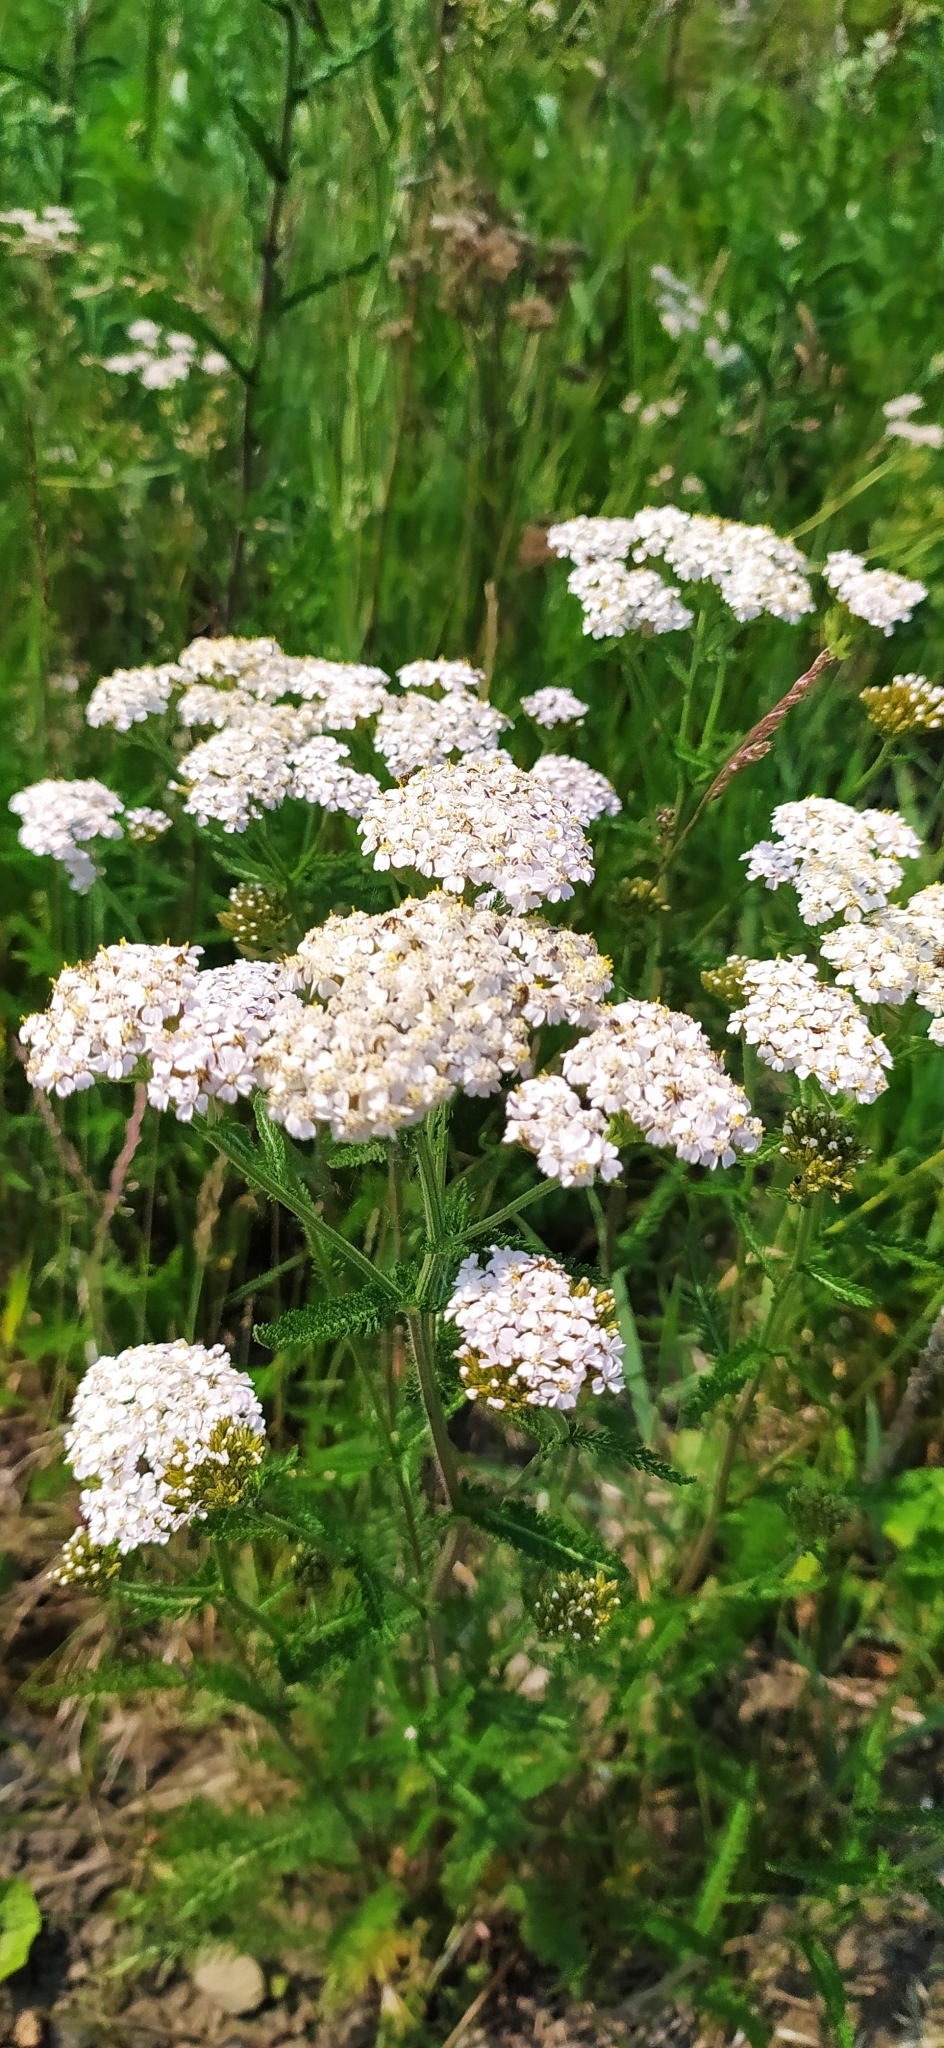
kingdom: Plantae
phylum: Tracheophyta
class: Magnoliopsida
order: Asterales
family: Asteraceae
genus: Achillea
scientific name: Achillea millefolium
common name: Yarrow
